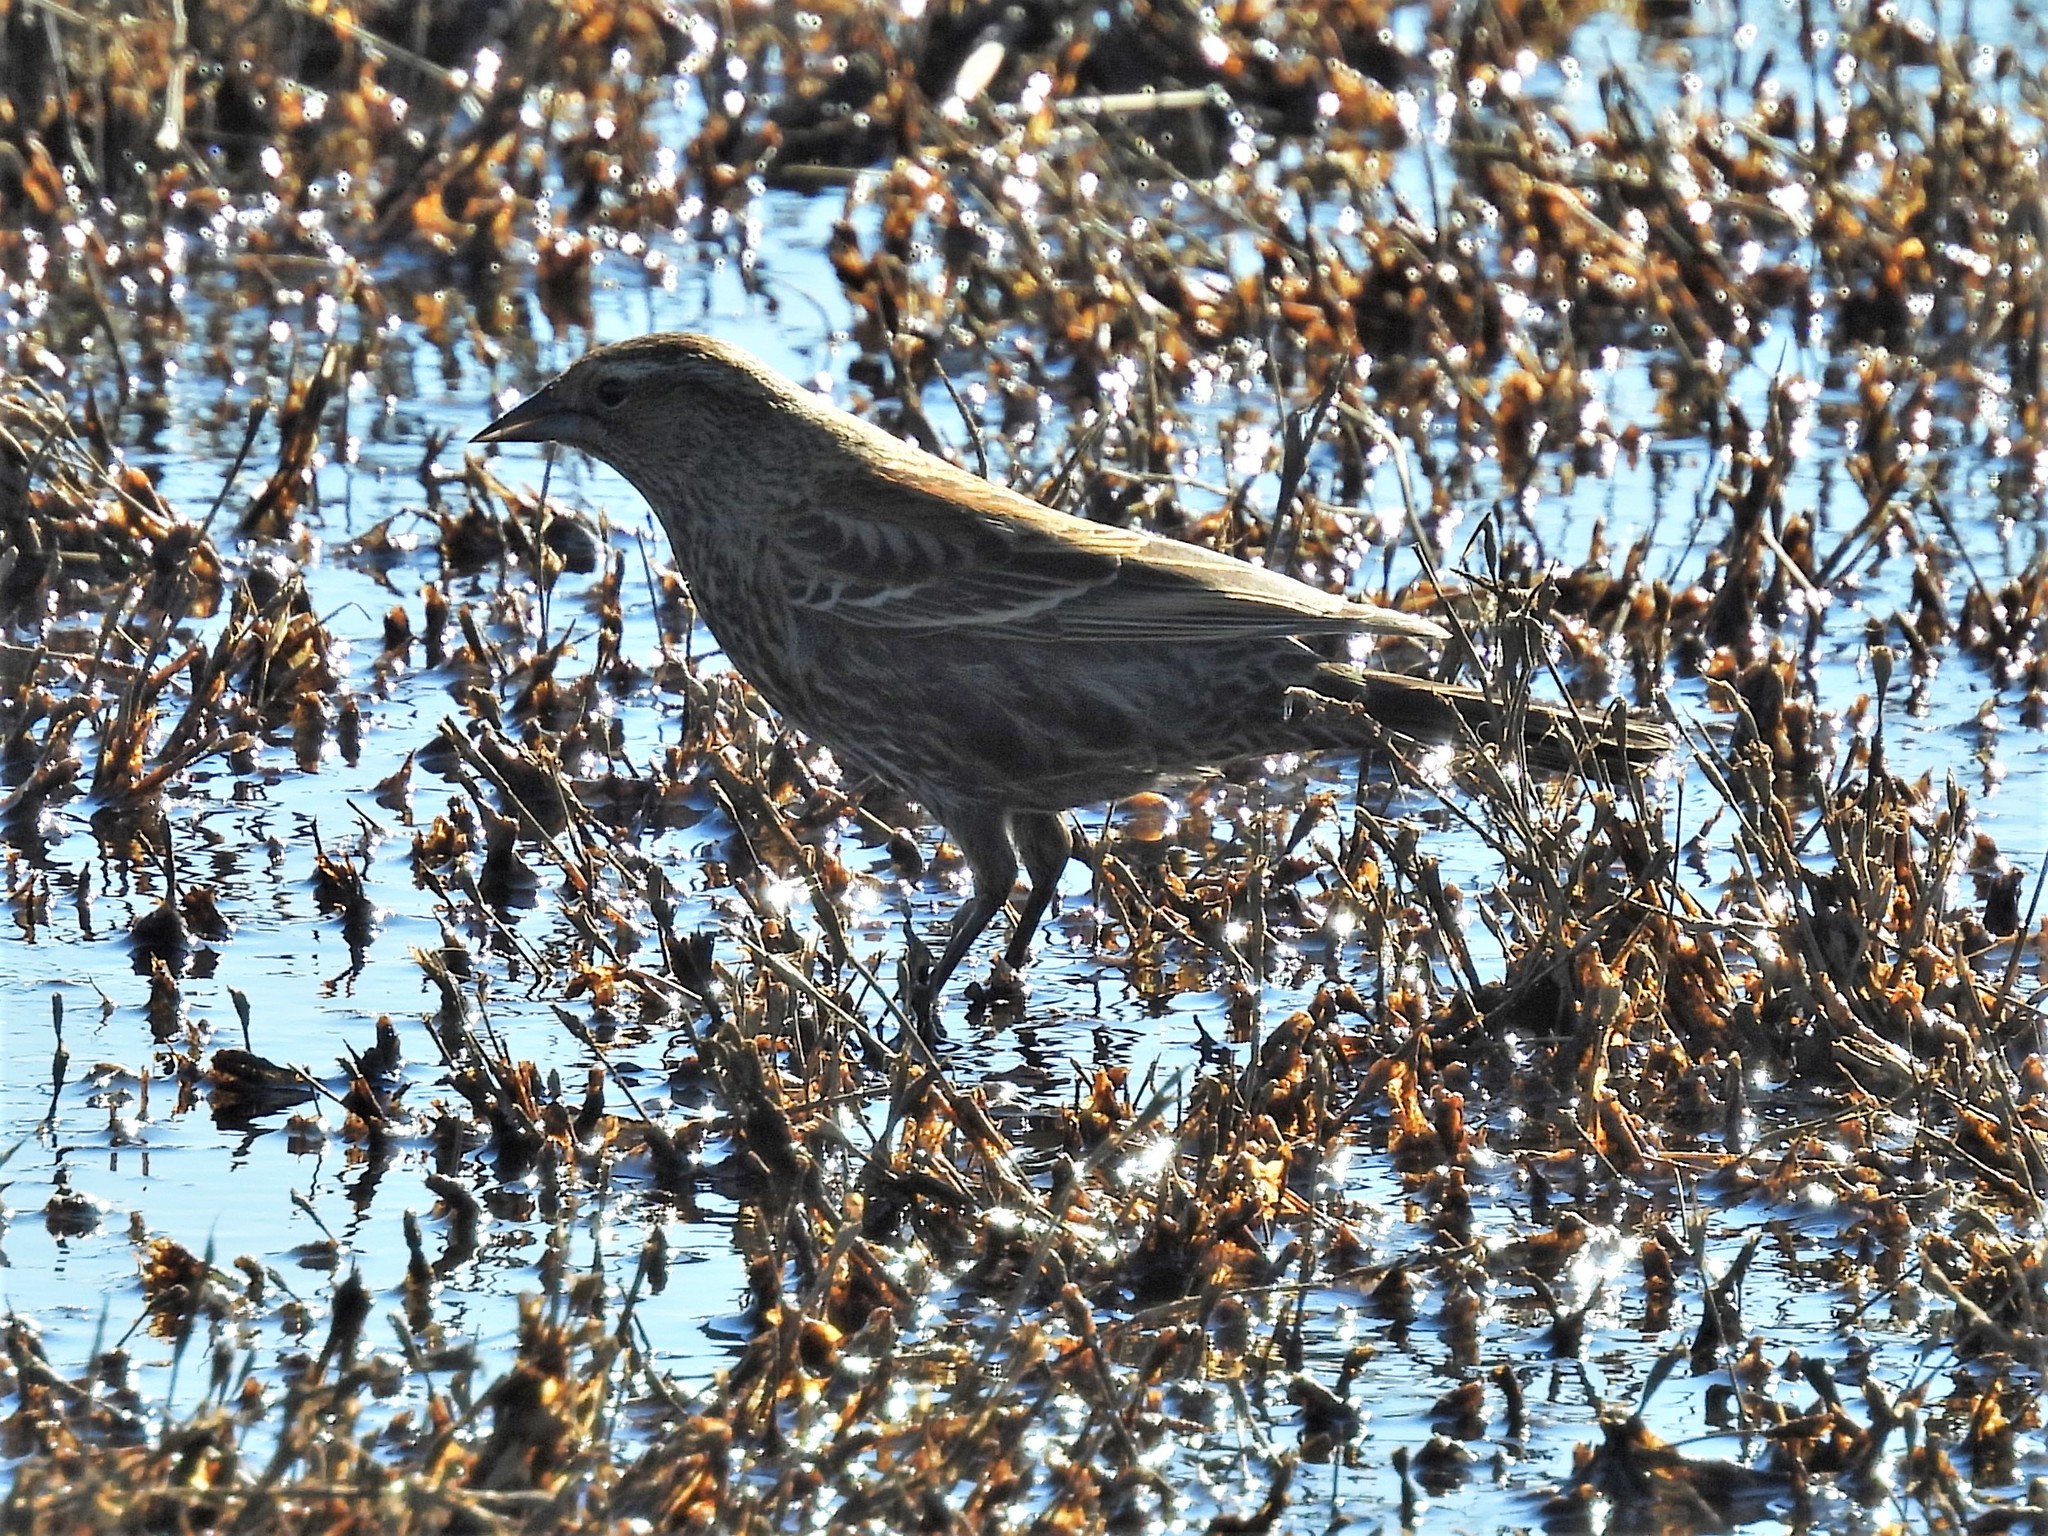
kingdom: Animalia
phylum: Chordata
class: Aves
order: Passeriformes
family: Icteridae
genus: Agelaius
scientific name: Agelaius phoeniceus
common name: Red-winged blackbird
